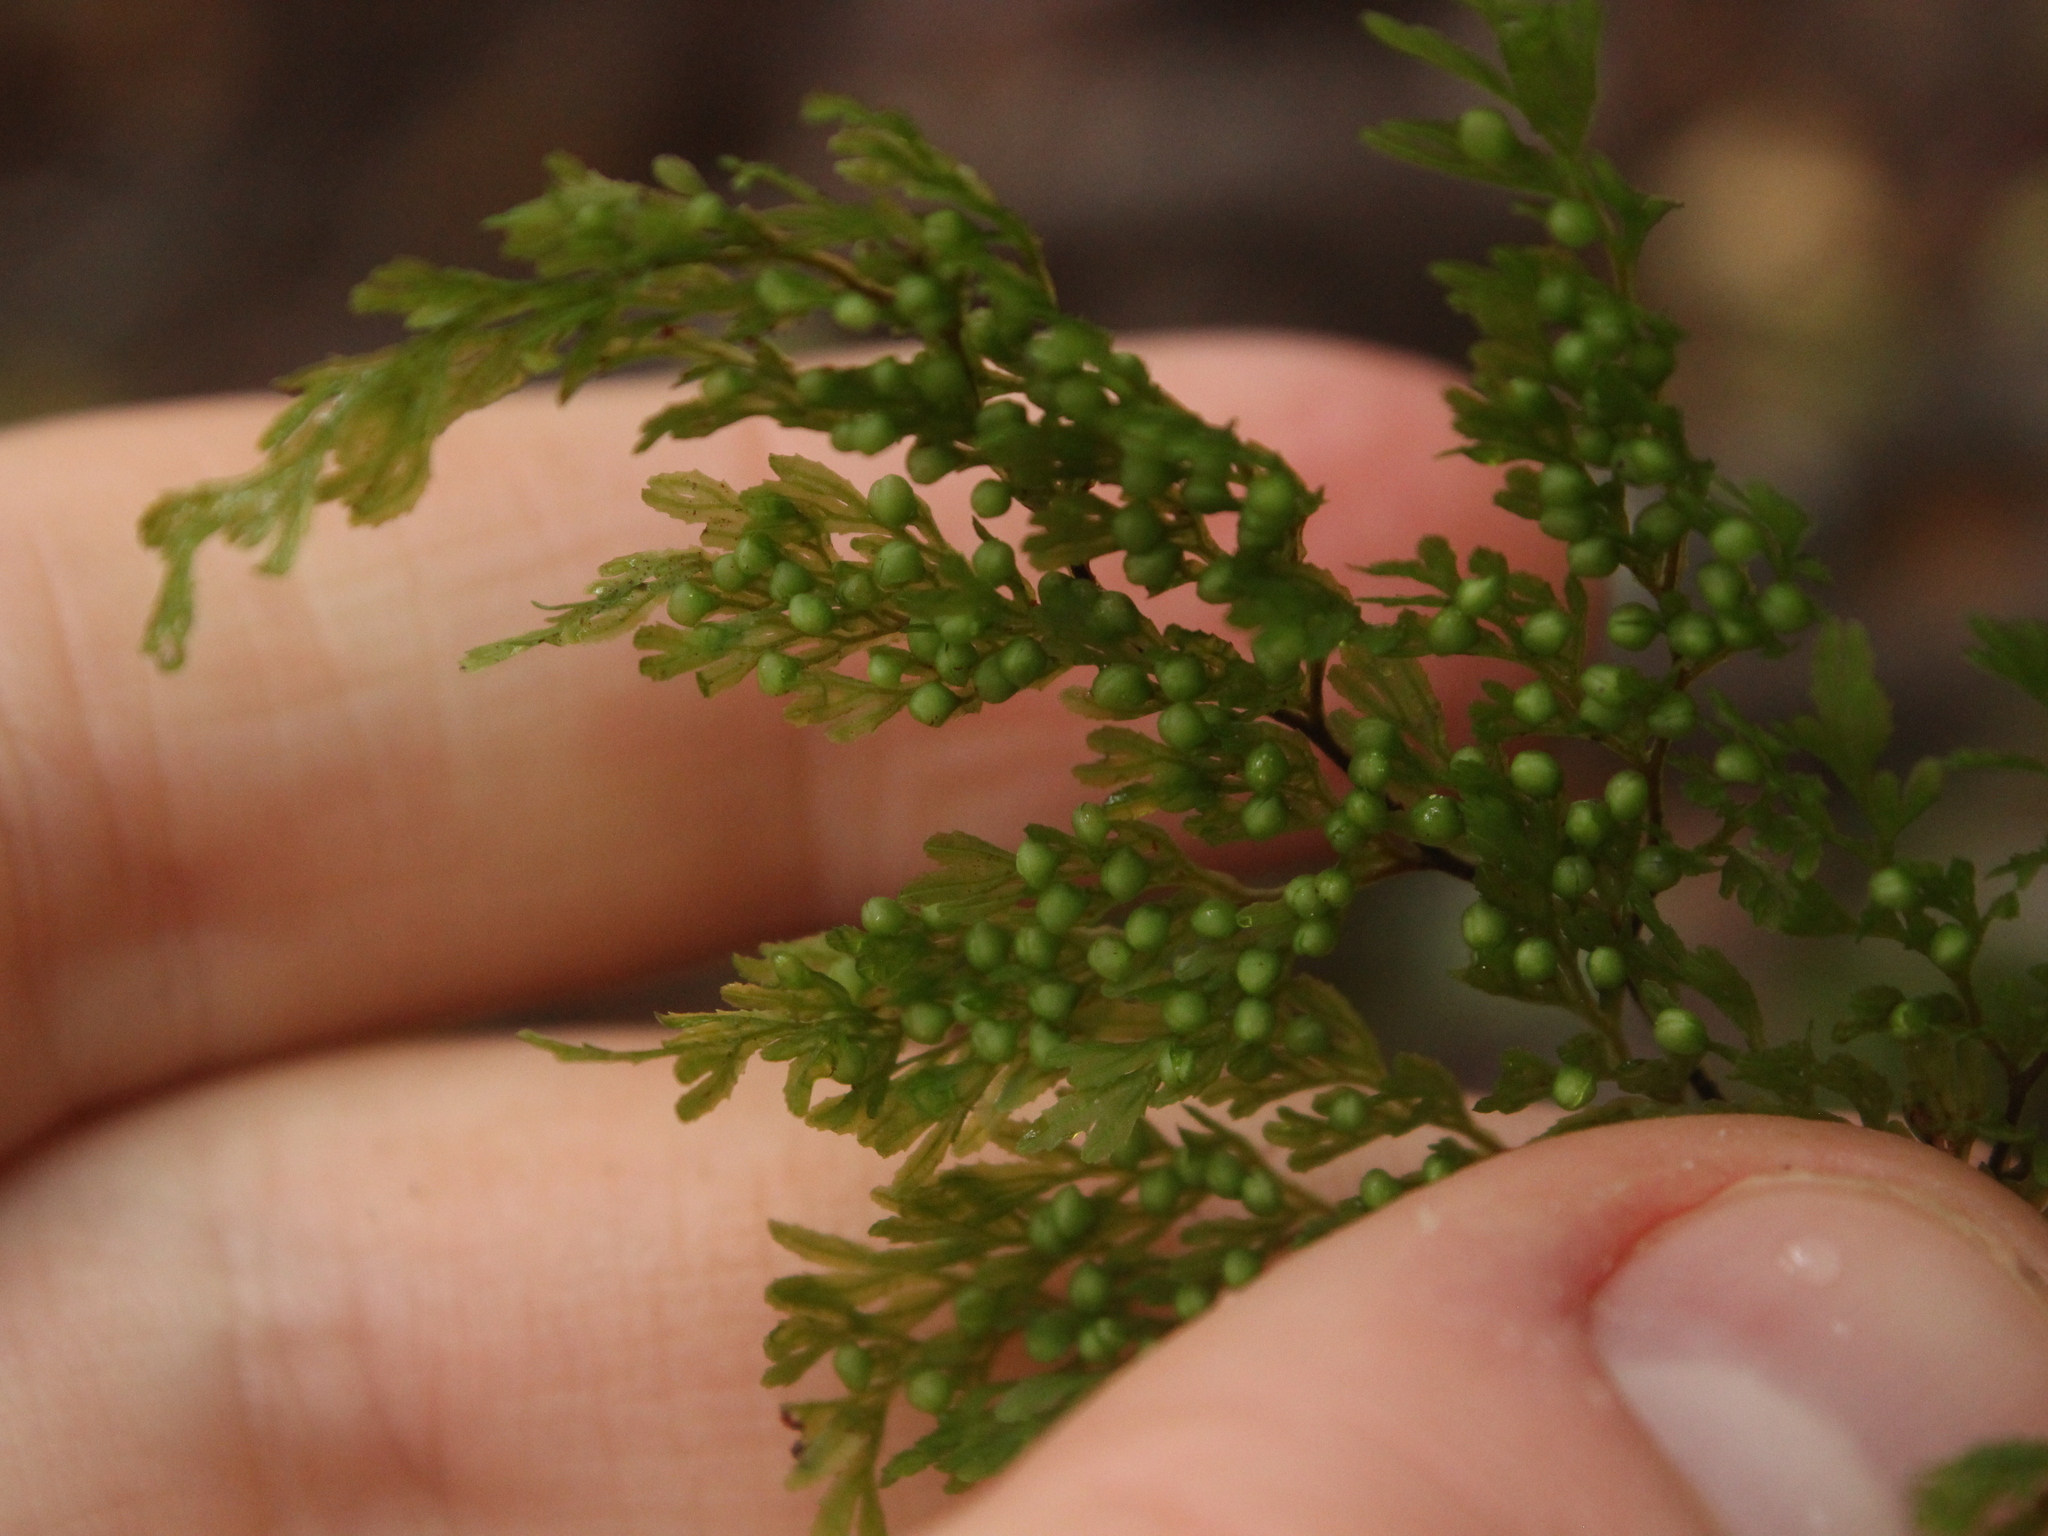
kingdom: Plantae
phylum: Tracheophyta
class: Polypodiopsida
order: Hymenophyllales
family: Hymenophyllaceae
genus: Hymenophyllum
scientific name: Hymenophyllum bivalve
